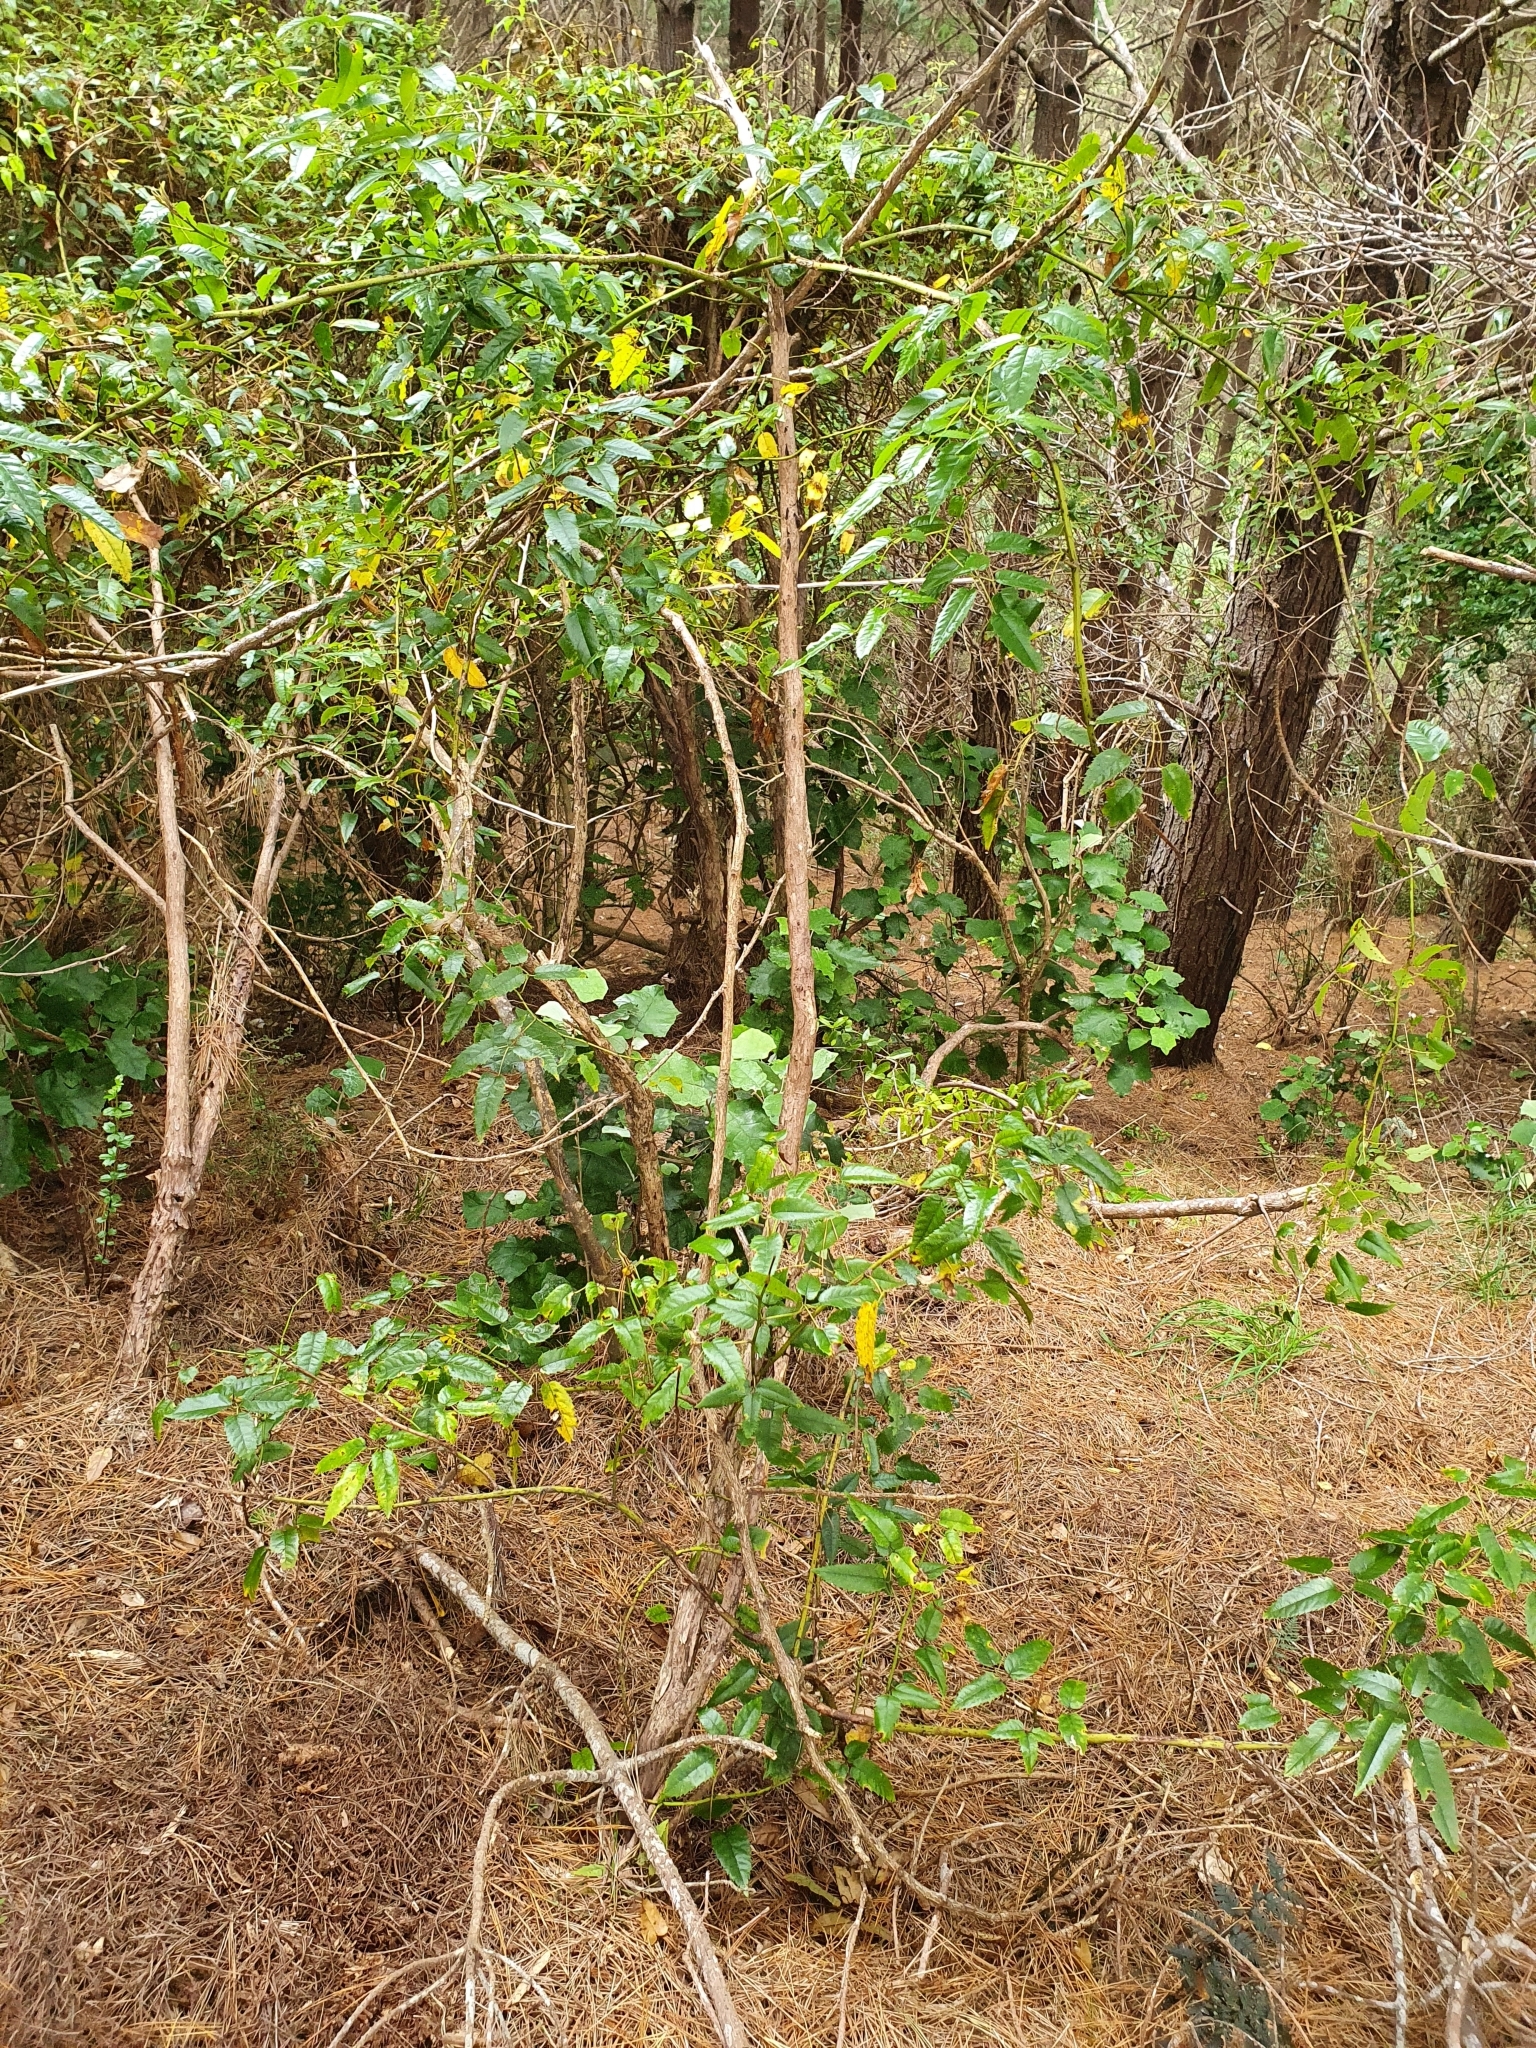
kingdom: Plantae
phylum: Tracheophyta
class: Magnoliopsida
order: Rosales
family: Rosaceae
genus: Rubus
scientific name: Rubus cissoides
